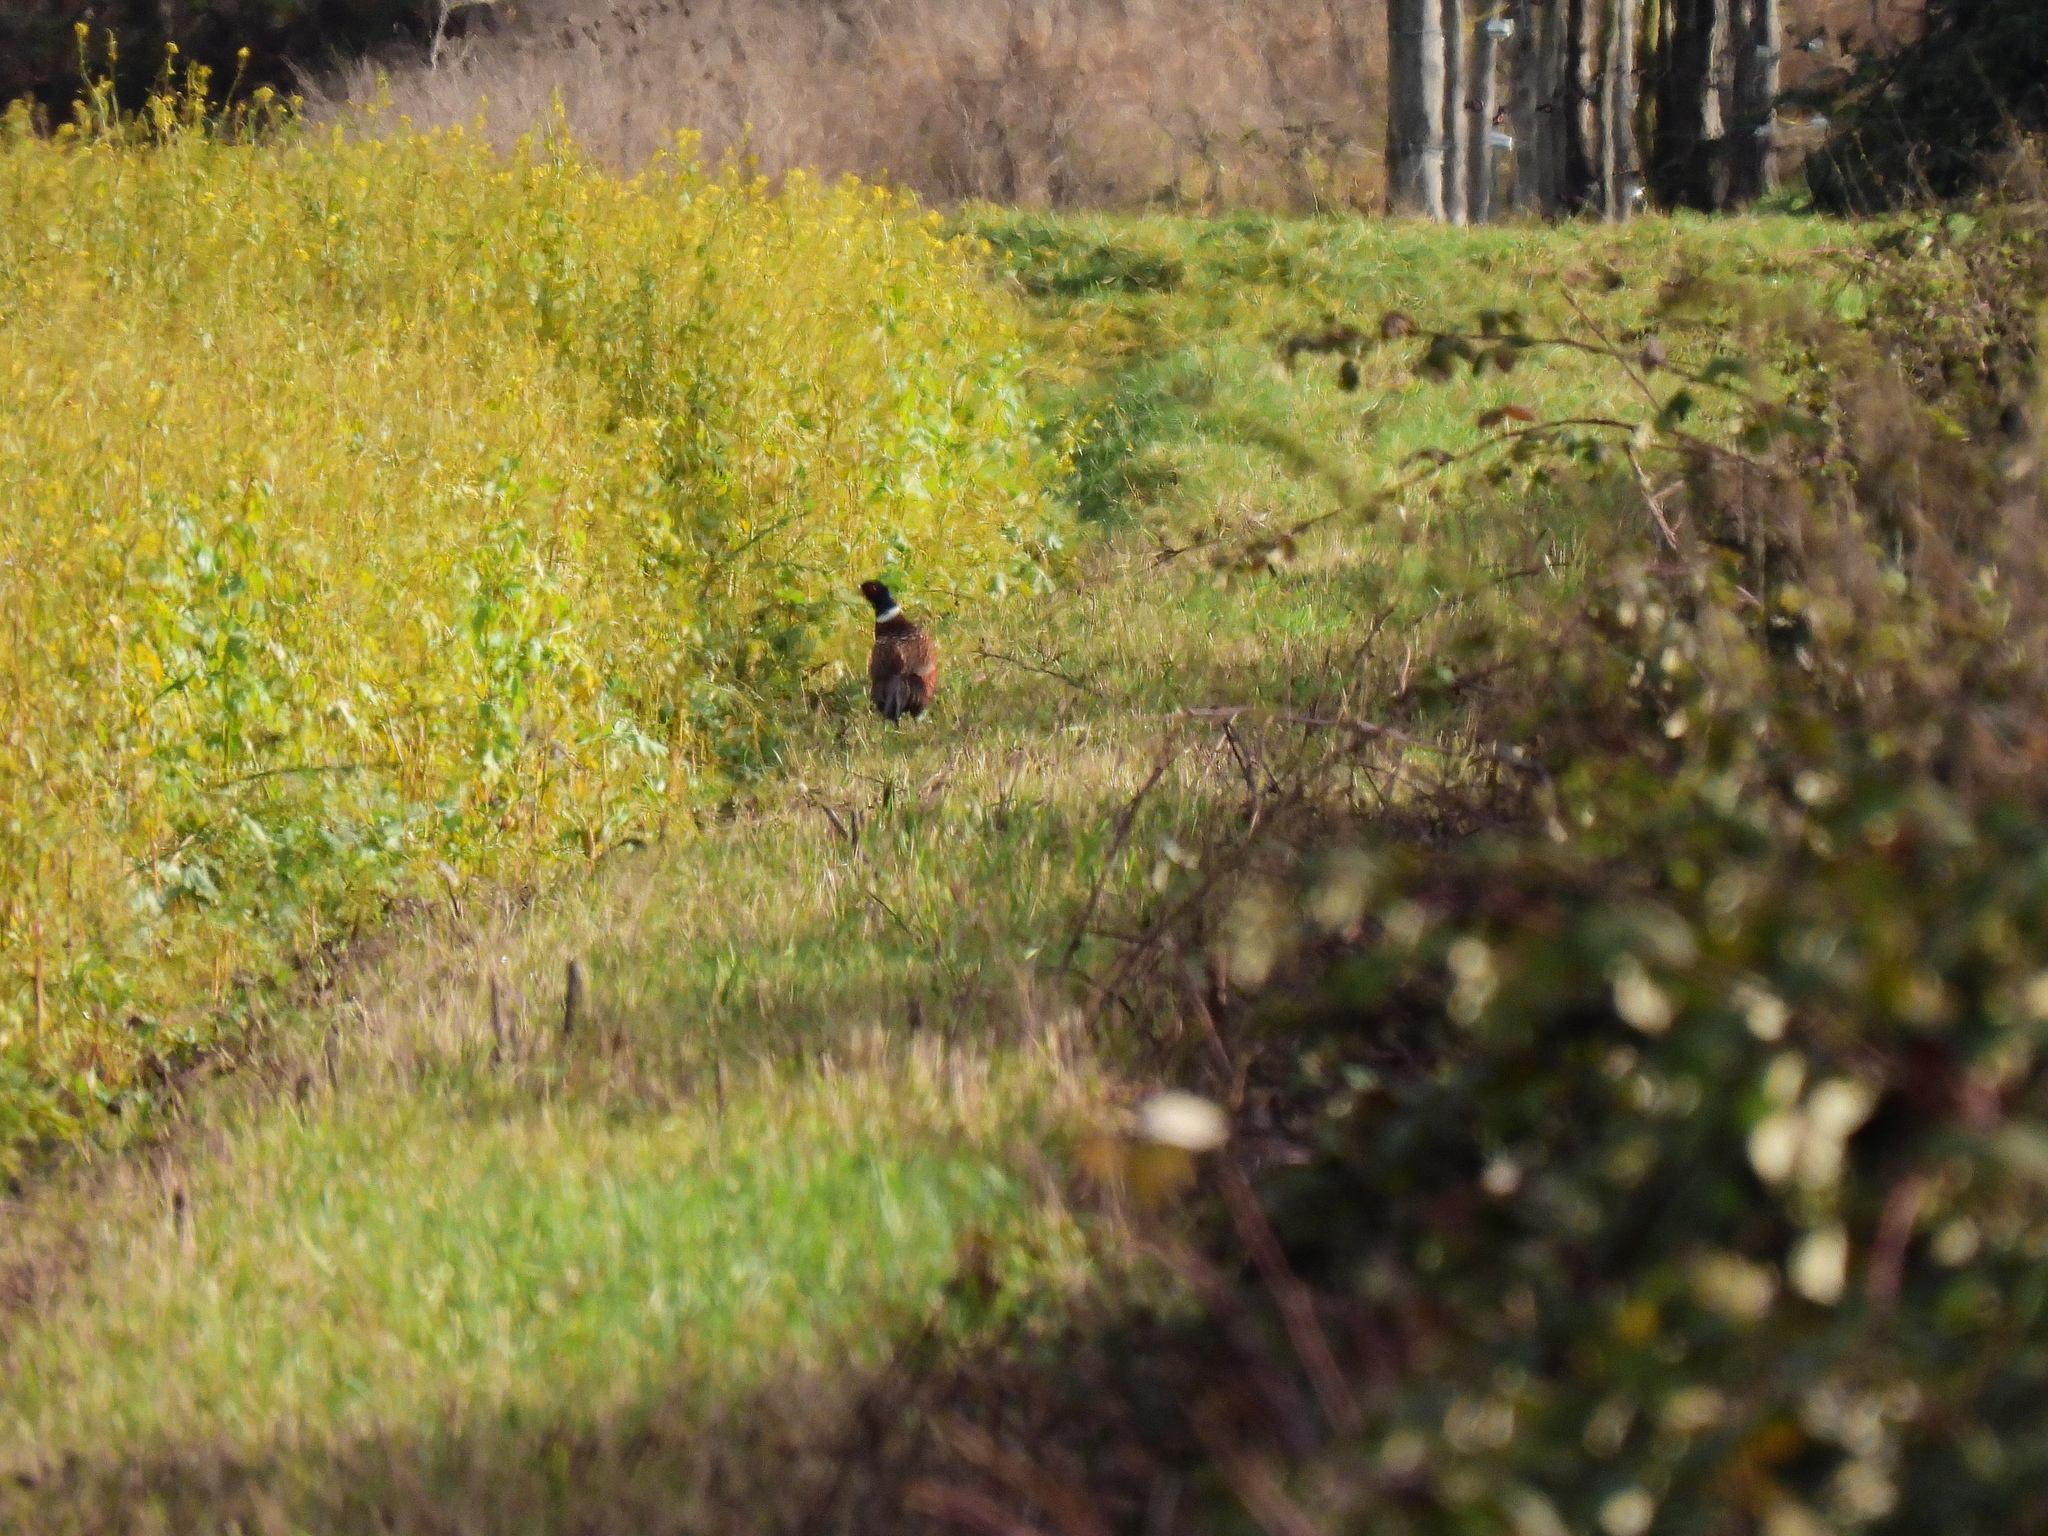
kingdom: Animalia
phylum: Chordata
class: Aves
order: Galliformes
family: Phasianidae
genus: Phasianus
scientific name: Phasianus colchicus
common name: Common pheasant
